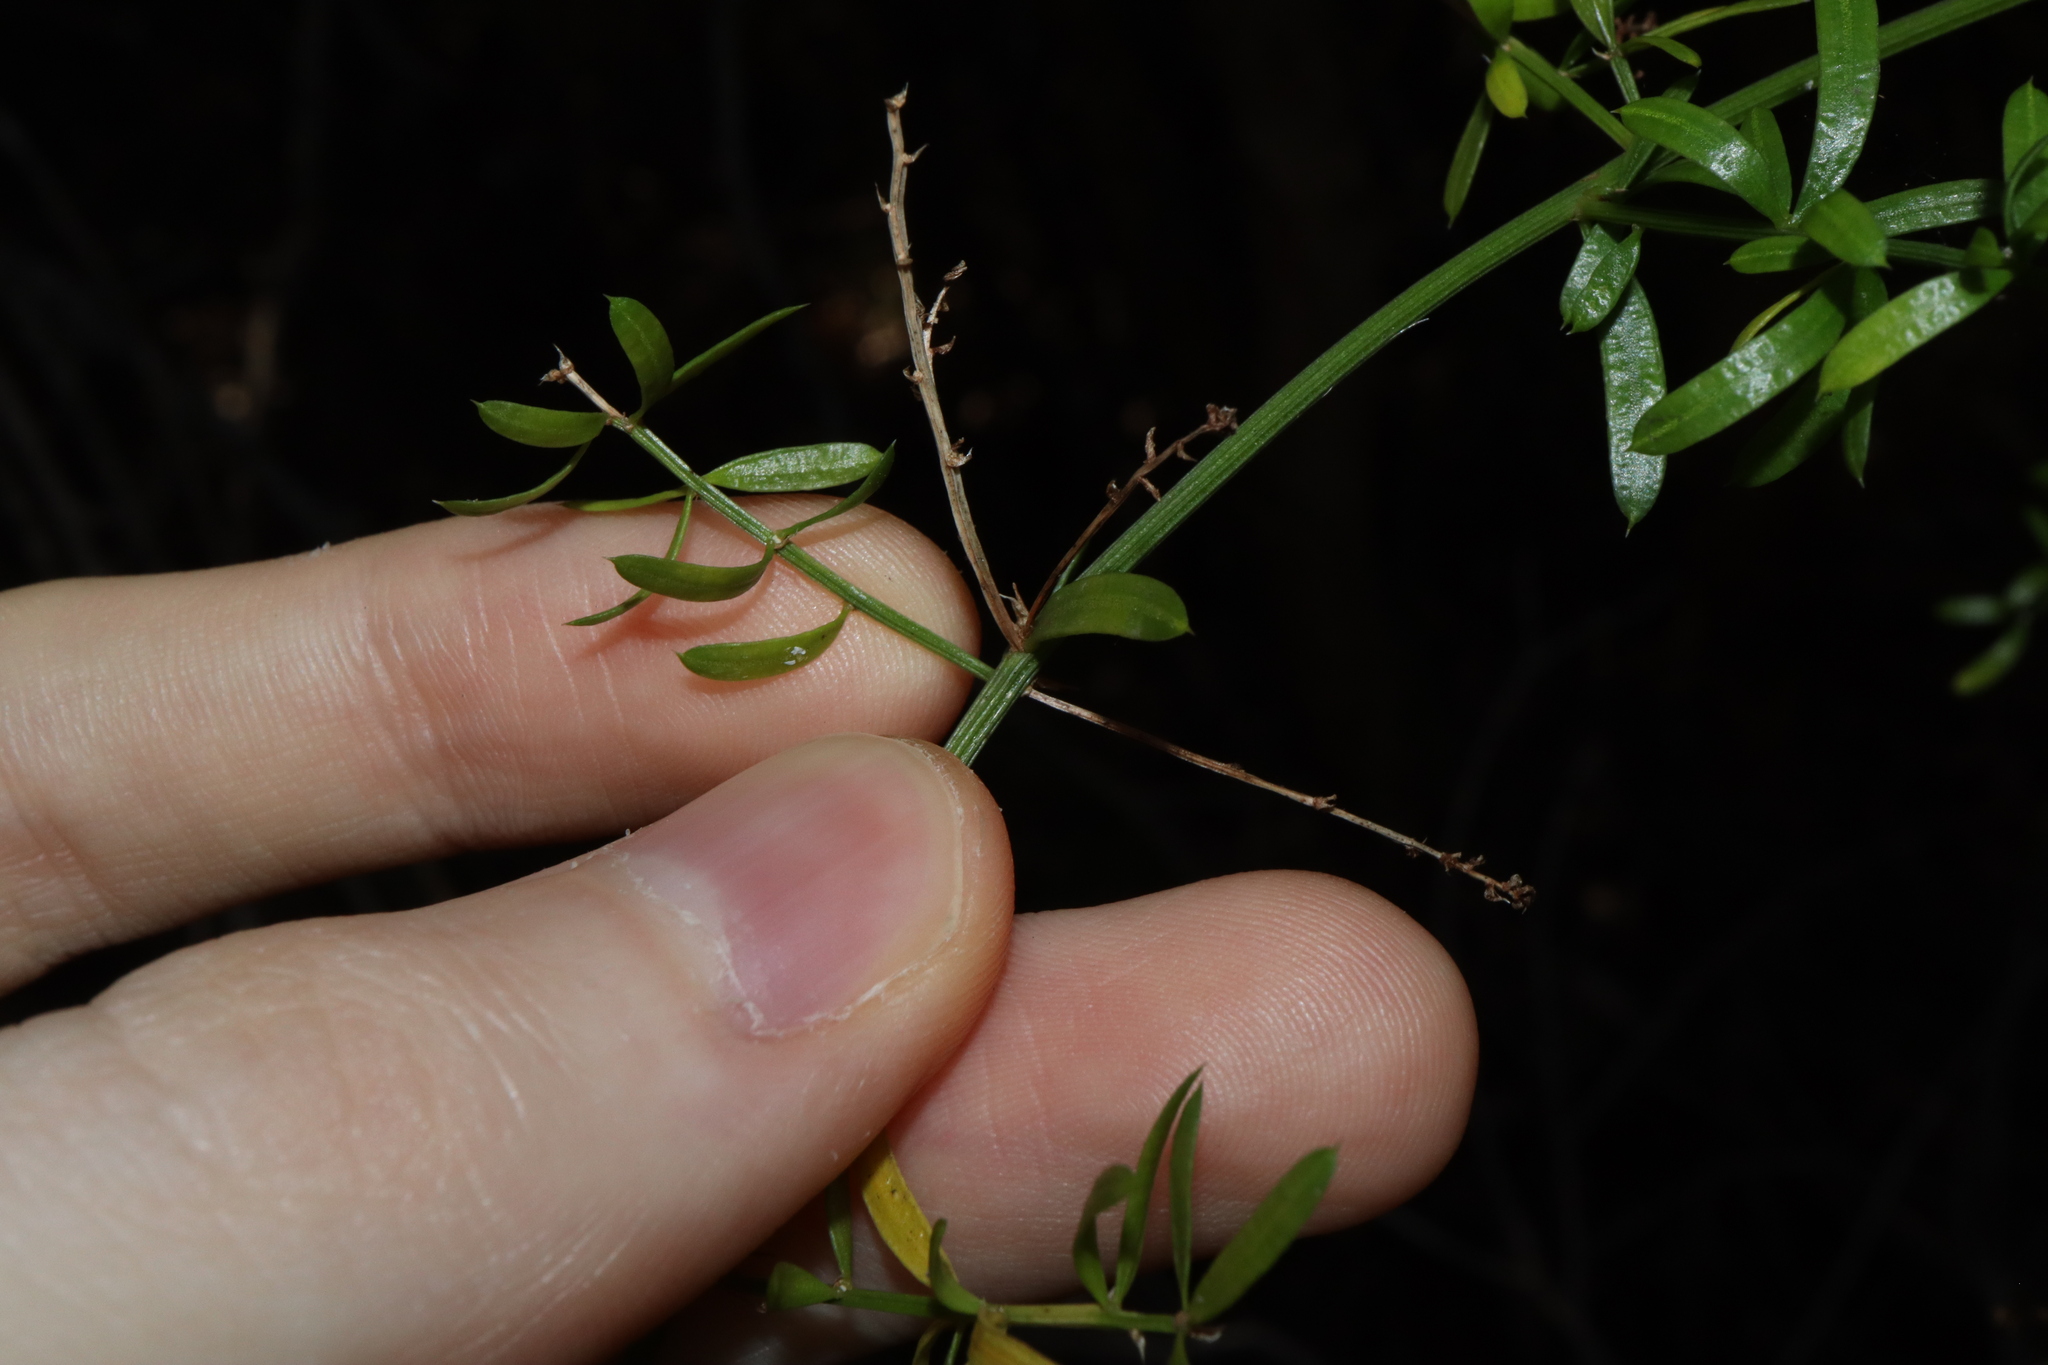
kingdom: Plantae
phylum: Tracheophyta
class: Liliopsida
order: Asparagales
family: Asparagaceae
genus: Asparagus
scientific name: Asparagus aethiopicus
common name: Sprenger's asparagus fern
